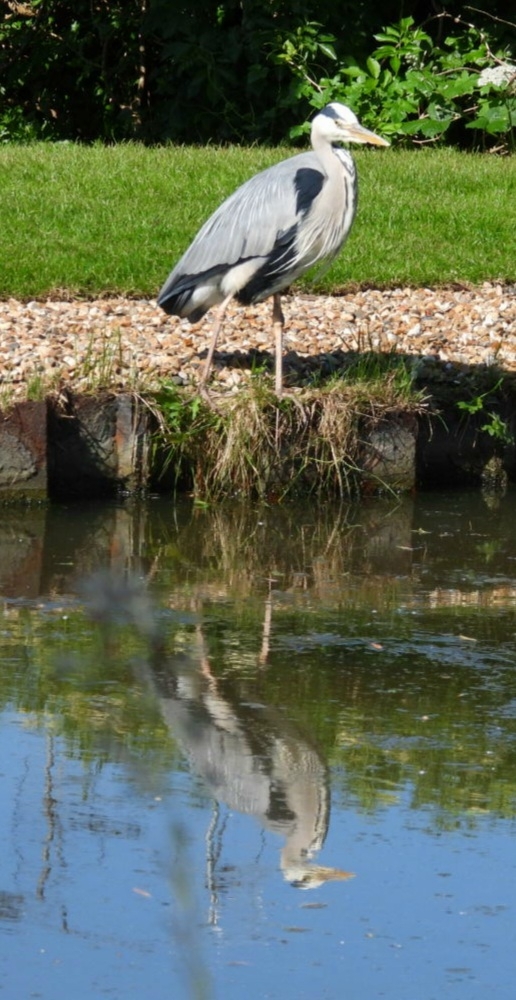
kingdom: Animalia
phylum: Chordata
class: Aves
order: Pelecaniformes
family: Ardeidae
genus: Ardea
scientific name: Ardea cinerea
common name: Grey heron
